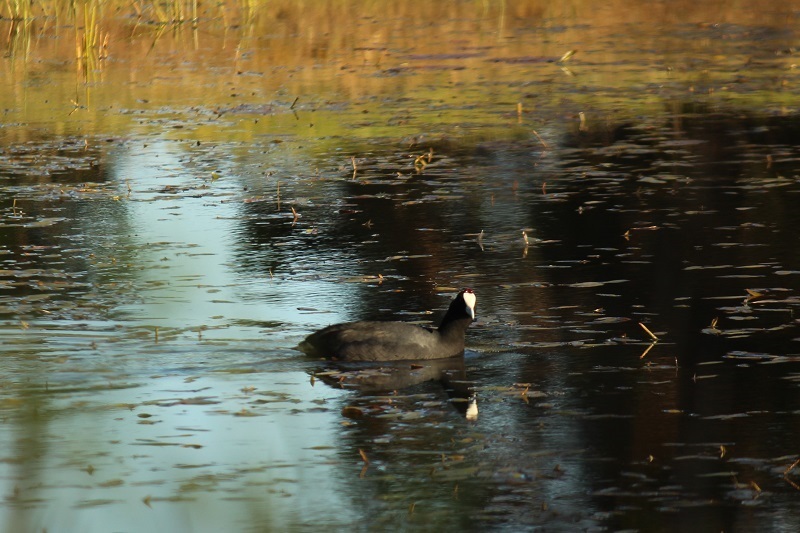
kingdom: Animalia
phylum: Chordata
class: Aves
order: Gruiformes
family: Rallidae
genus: Fulica
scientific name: Fulica cristata
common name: Red-knobbed coot
